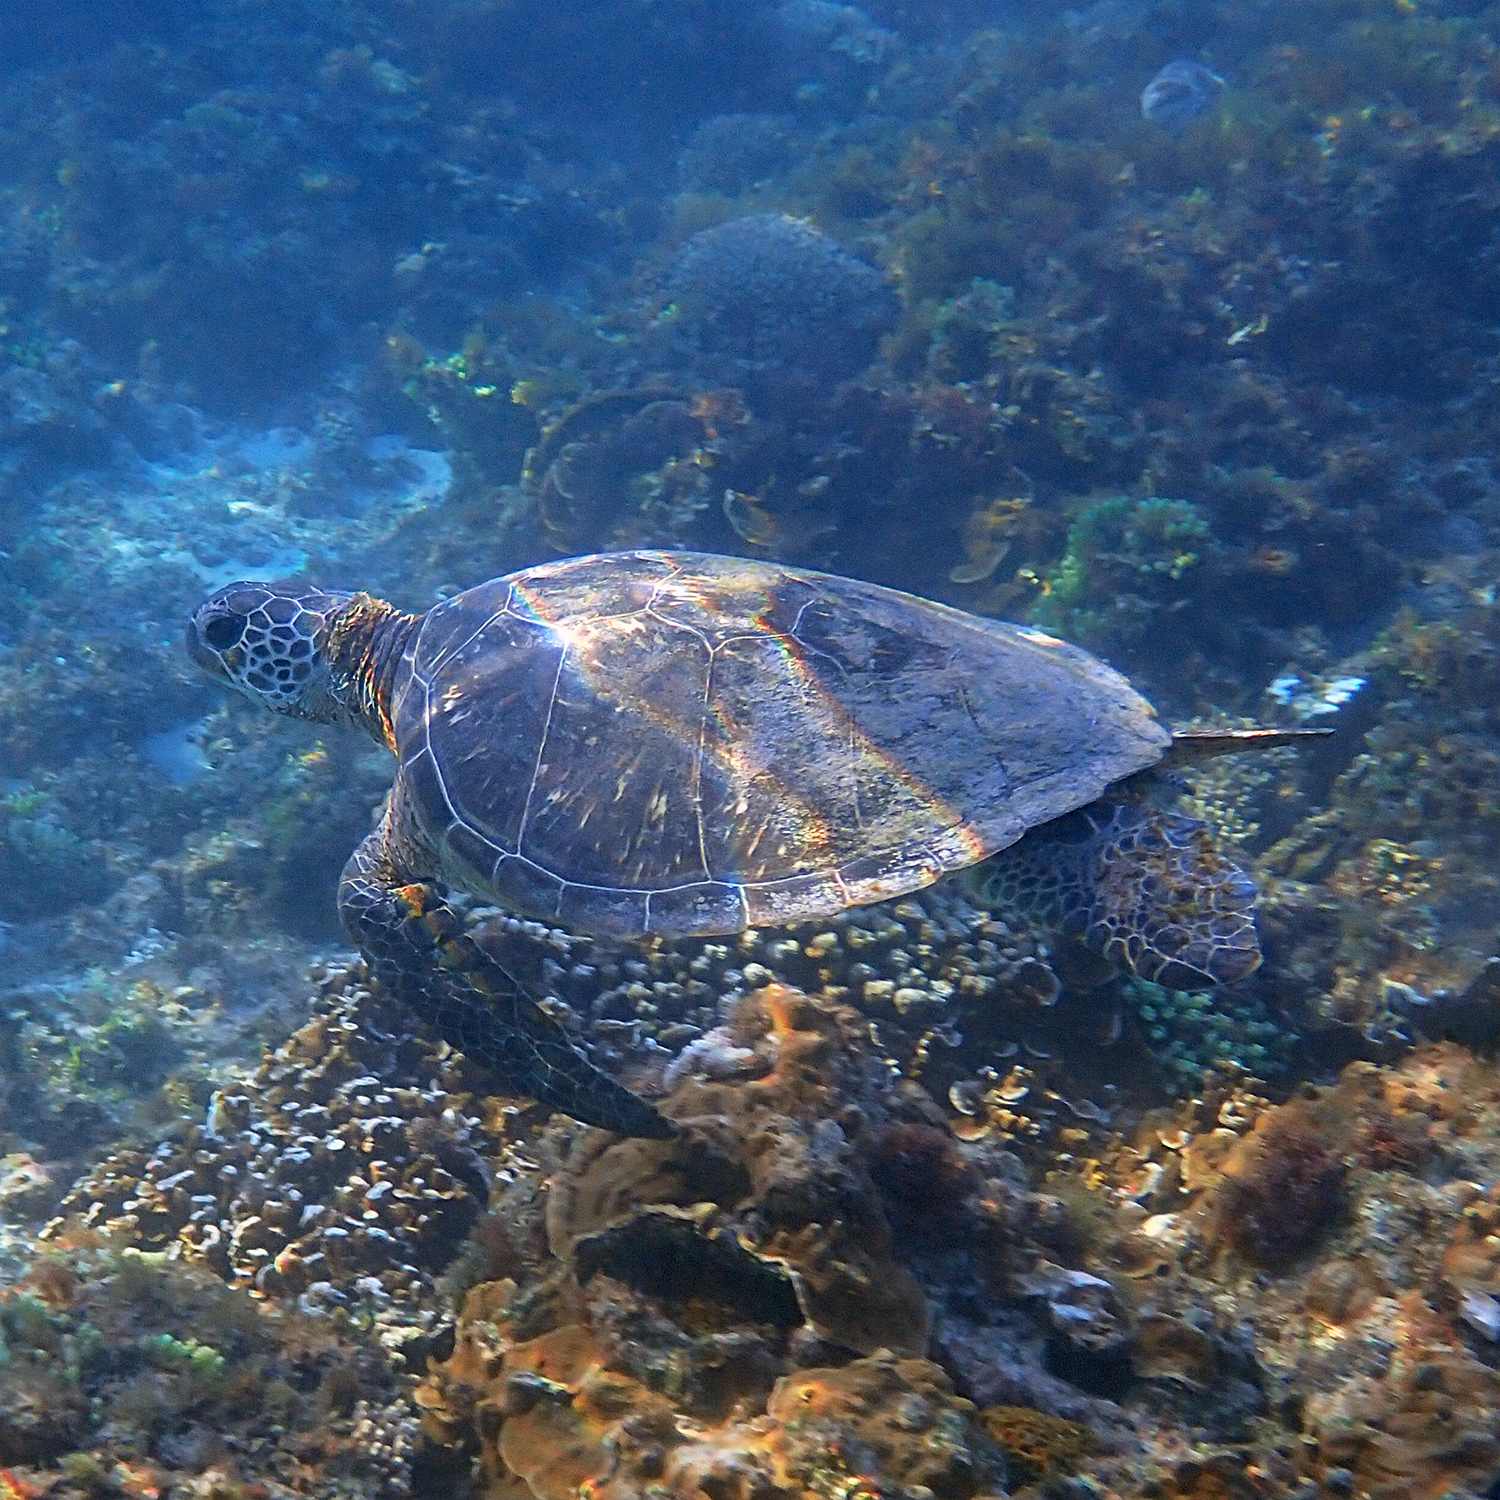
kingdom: Animalia
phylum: Chordata
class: Testudines
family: Cheloniidae
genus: Chelonia
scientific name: Chelonia mydas
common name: Green turtle
